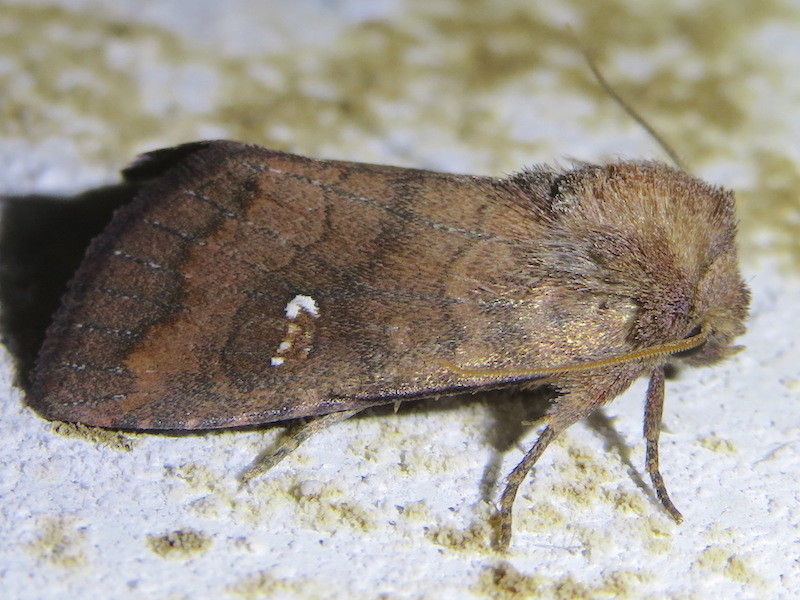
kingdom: Animalia
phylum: Arthropoda
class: Insecta
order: Lepidoptera
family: Noctuidae
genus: Tricholita
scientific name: Tricholita signata
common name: Signate quaker
